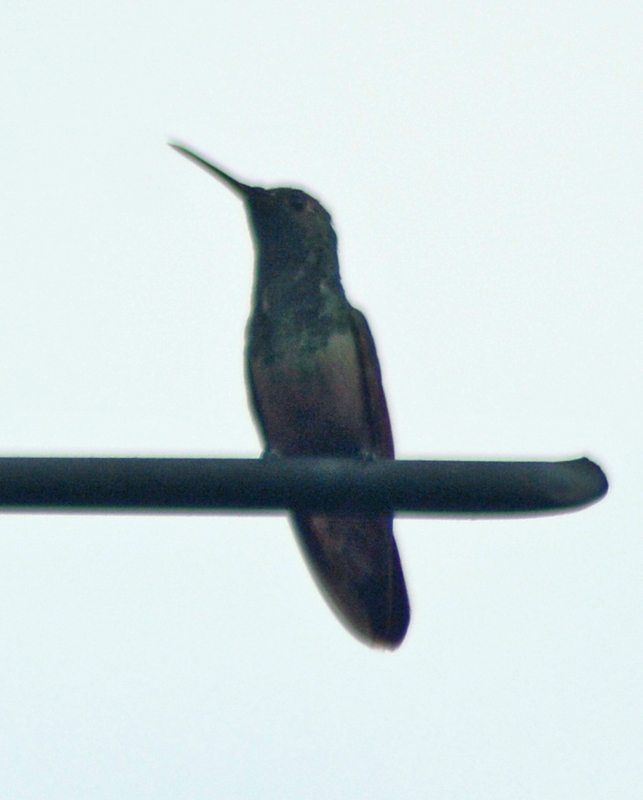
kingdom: Animalia
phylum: Chordata
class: Aves
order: Apodiformes
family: Trochilidae
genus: Saucerottia
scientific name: Saucerottia beryllina
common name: Berylline hummingbird
